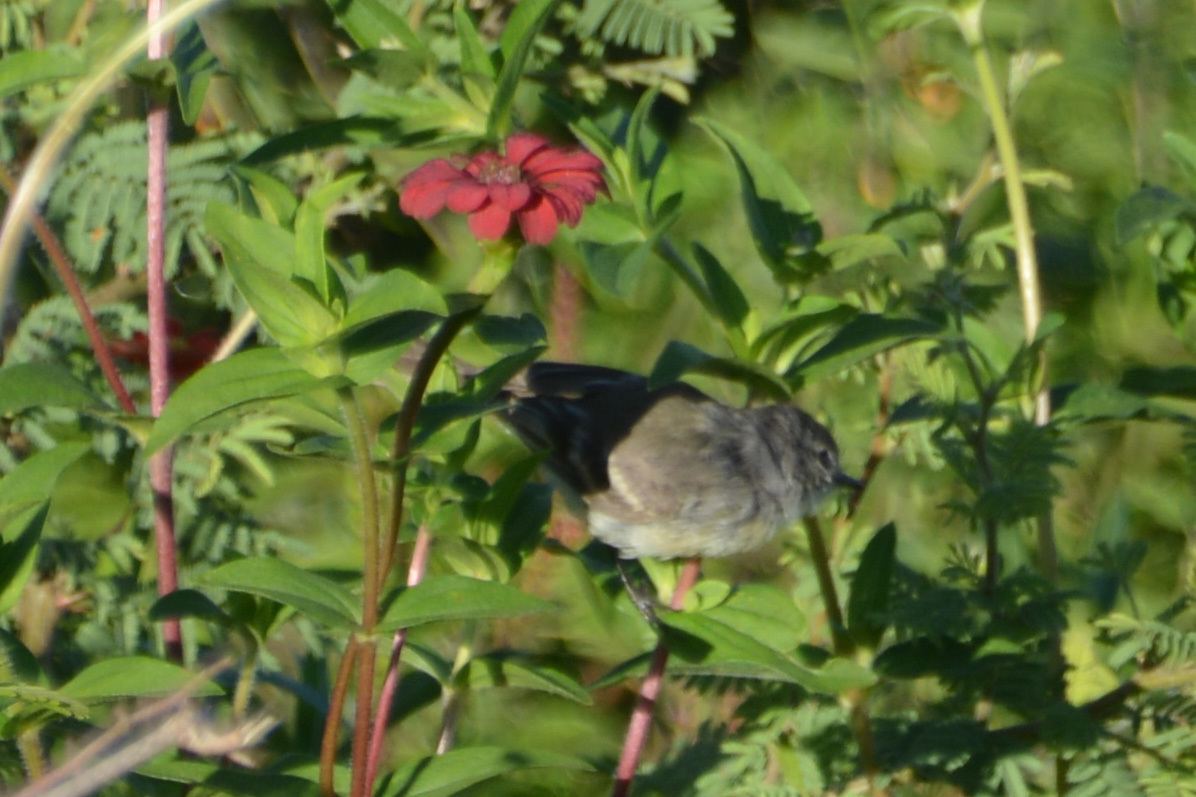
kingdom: Plantae
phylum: Tracheophyta
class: Magnoliopsida
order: Asterales
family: Asteraceae
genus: Zinnia
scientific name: Zinnia peruviana
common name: Peruvian zinnia
